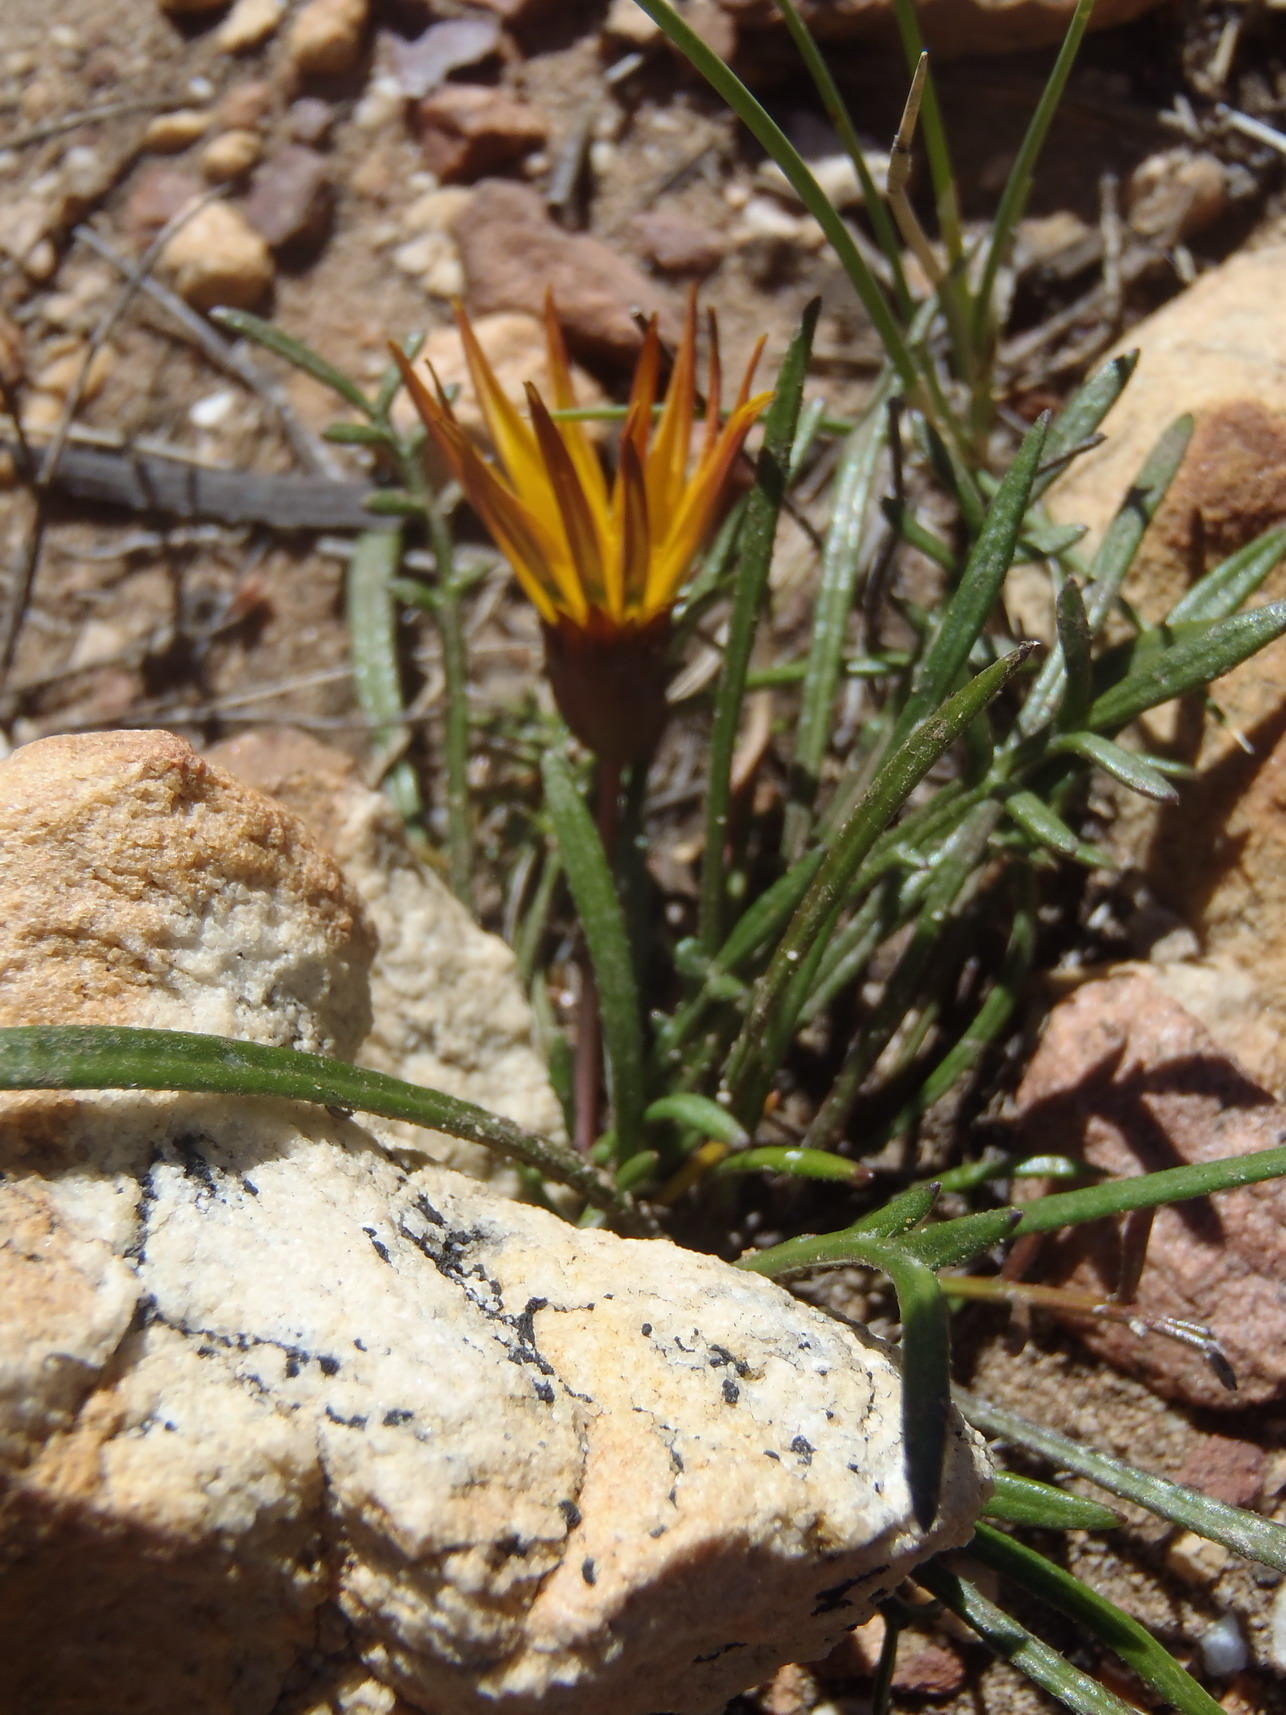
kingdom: Plantae
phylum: Tracheophyta
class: Magnoliopsida
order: Asterales
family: Asteraceae
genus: Gazania
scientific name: Gazania krebsiana
